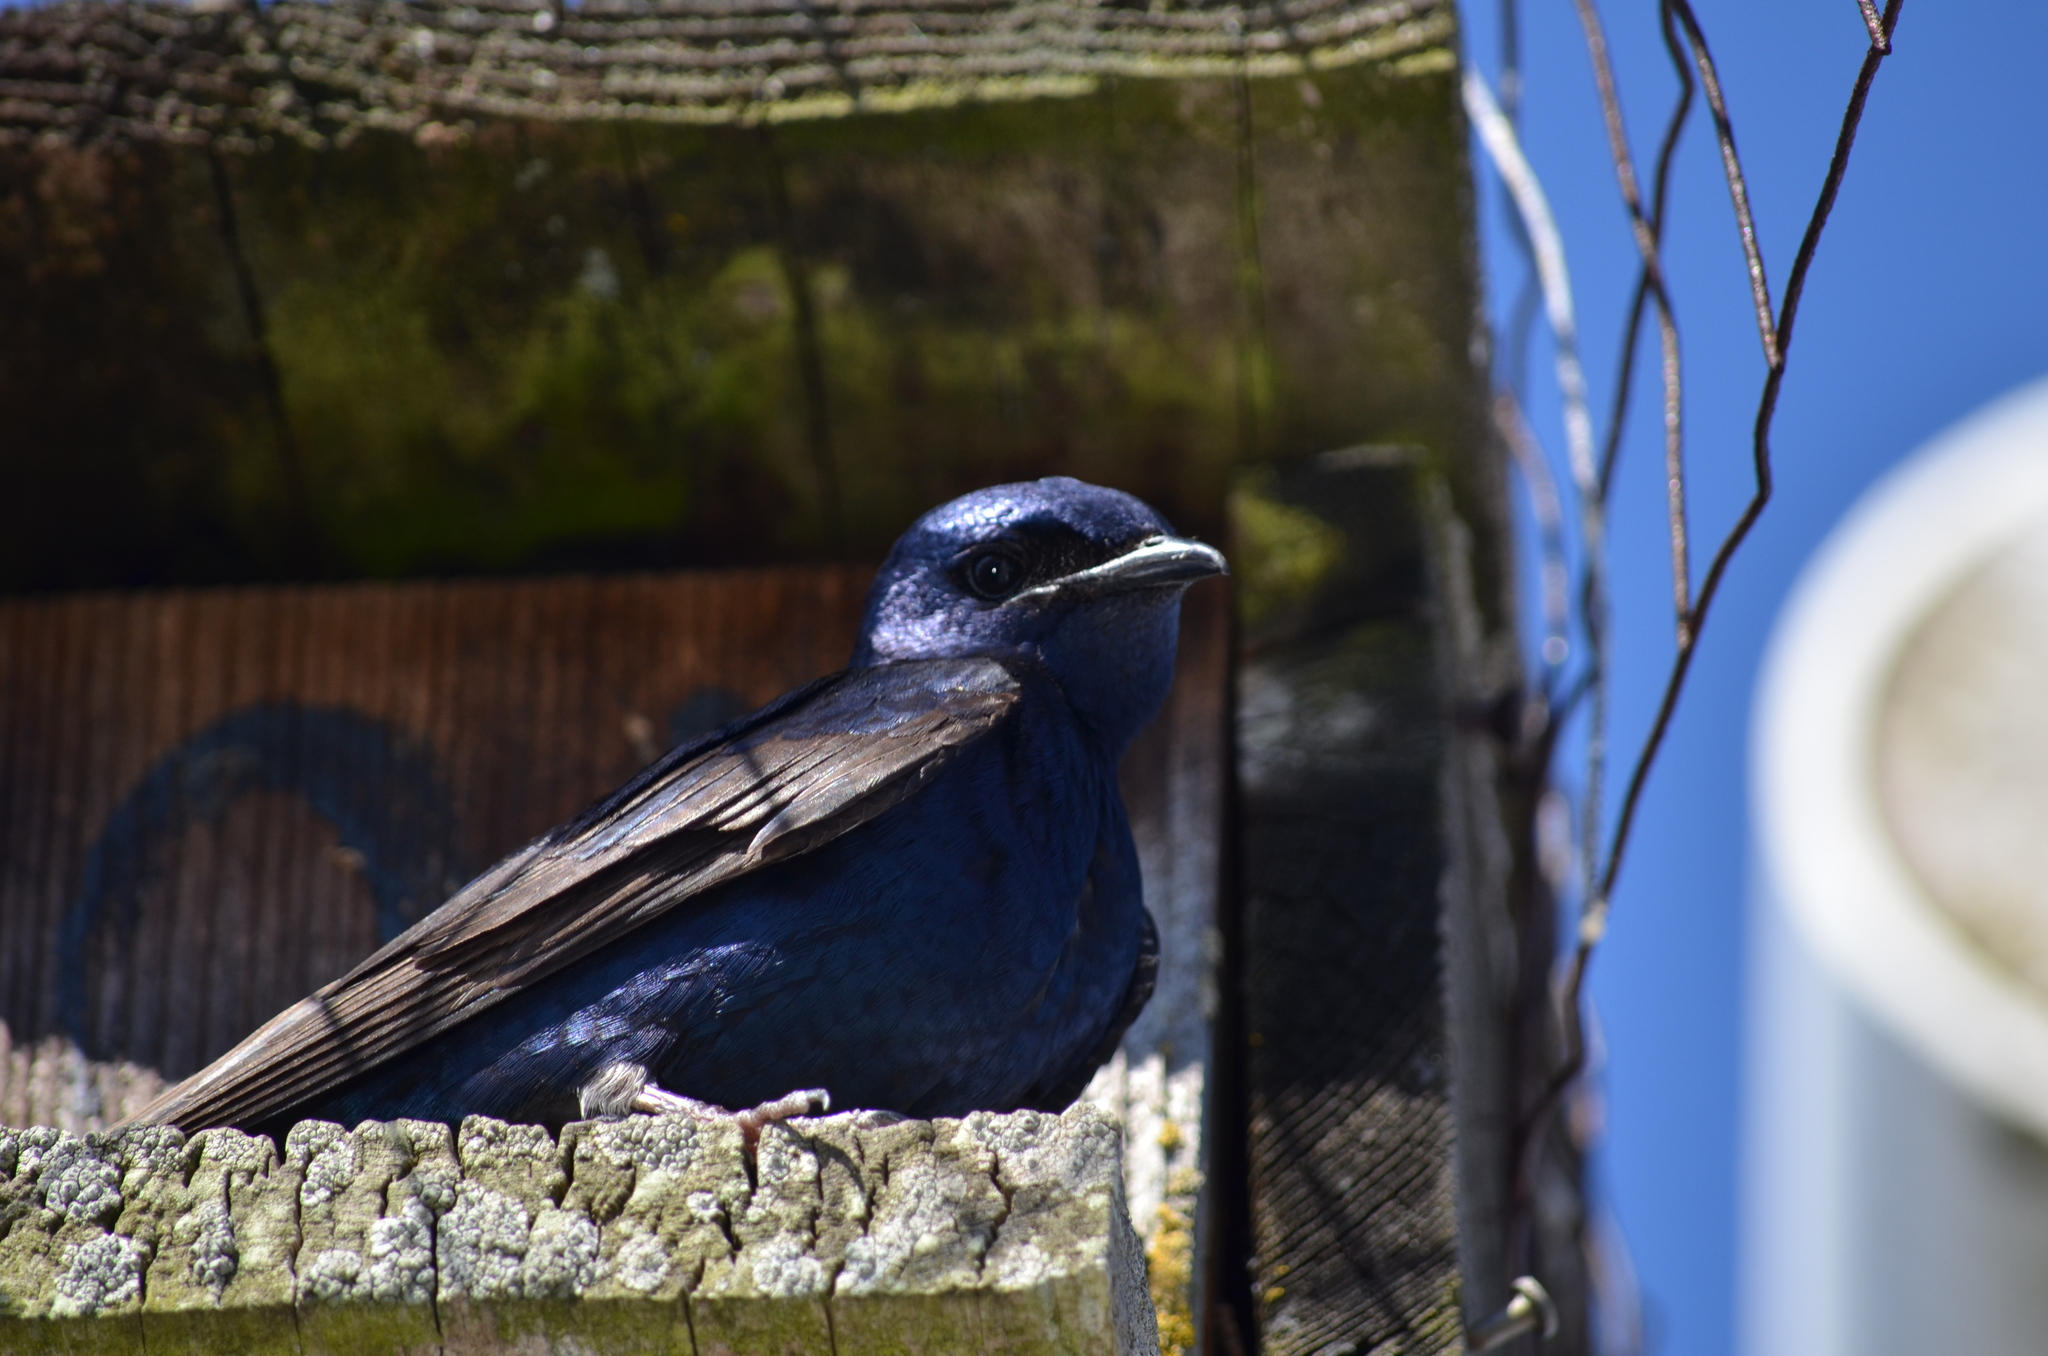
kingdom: Animalia
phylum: Chordata
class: Aves
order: Passeriformes
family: Hirundinidae
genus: Progne
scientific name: Progne subis
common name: Purple martin
